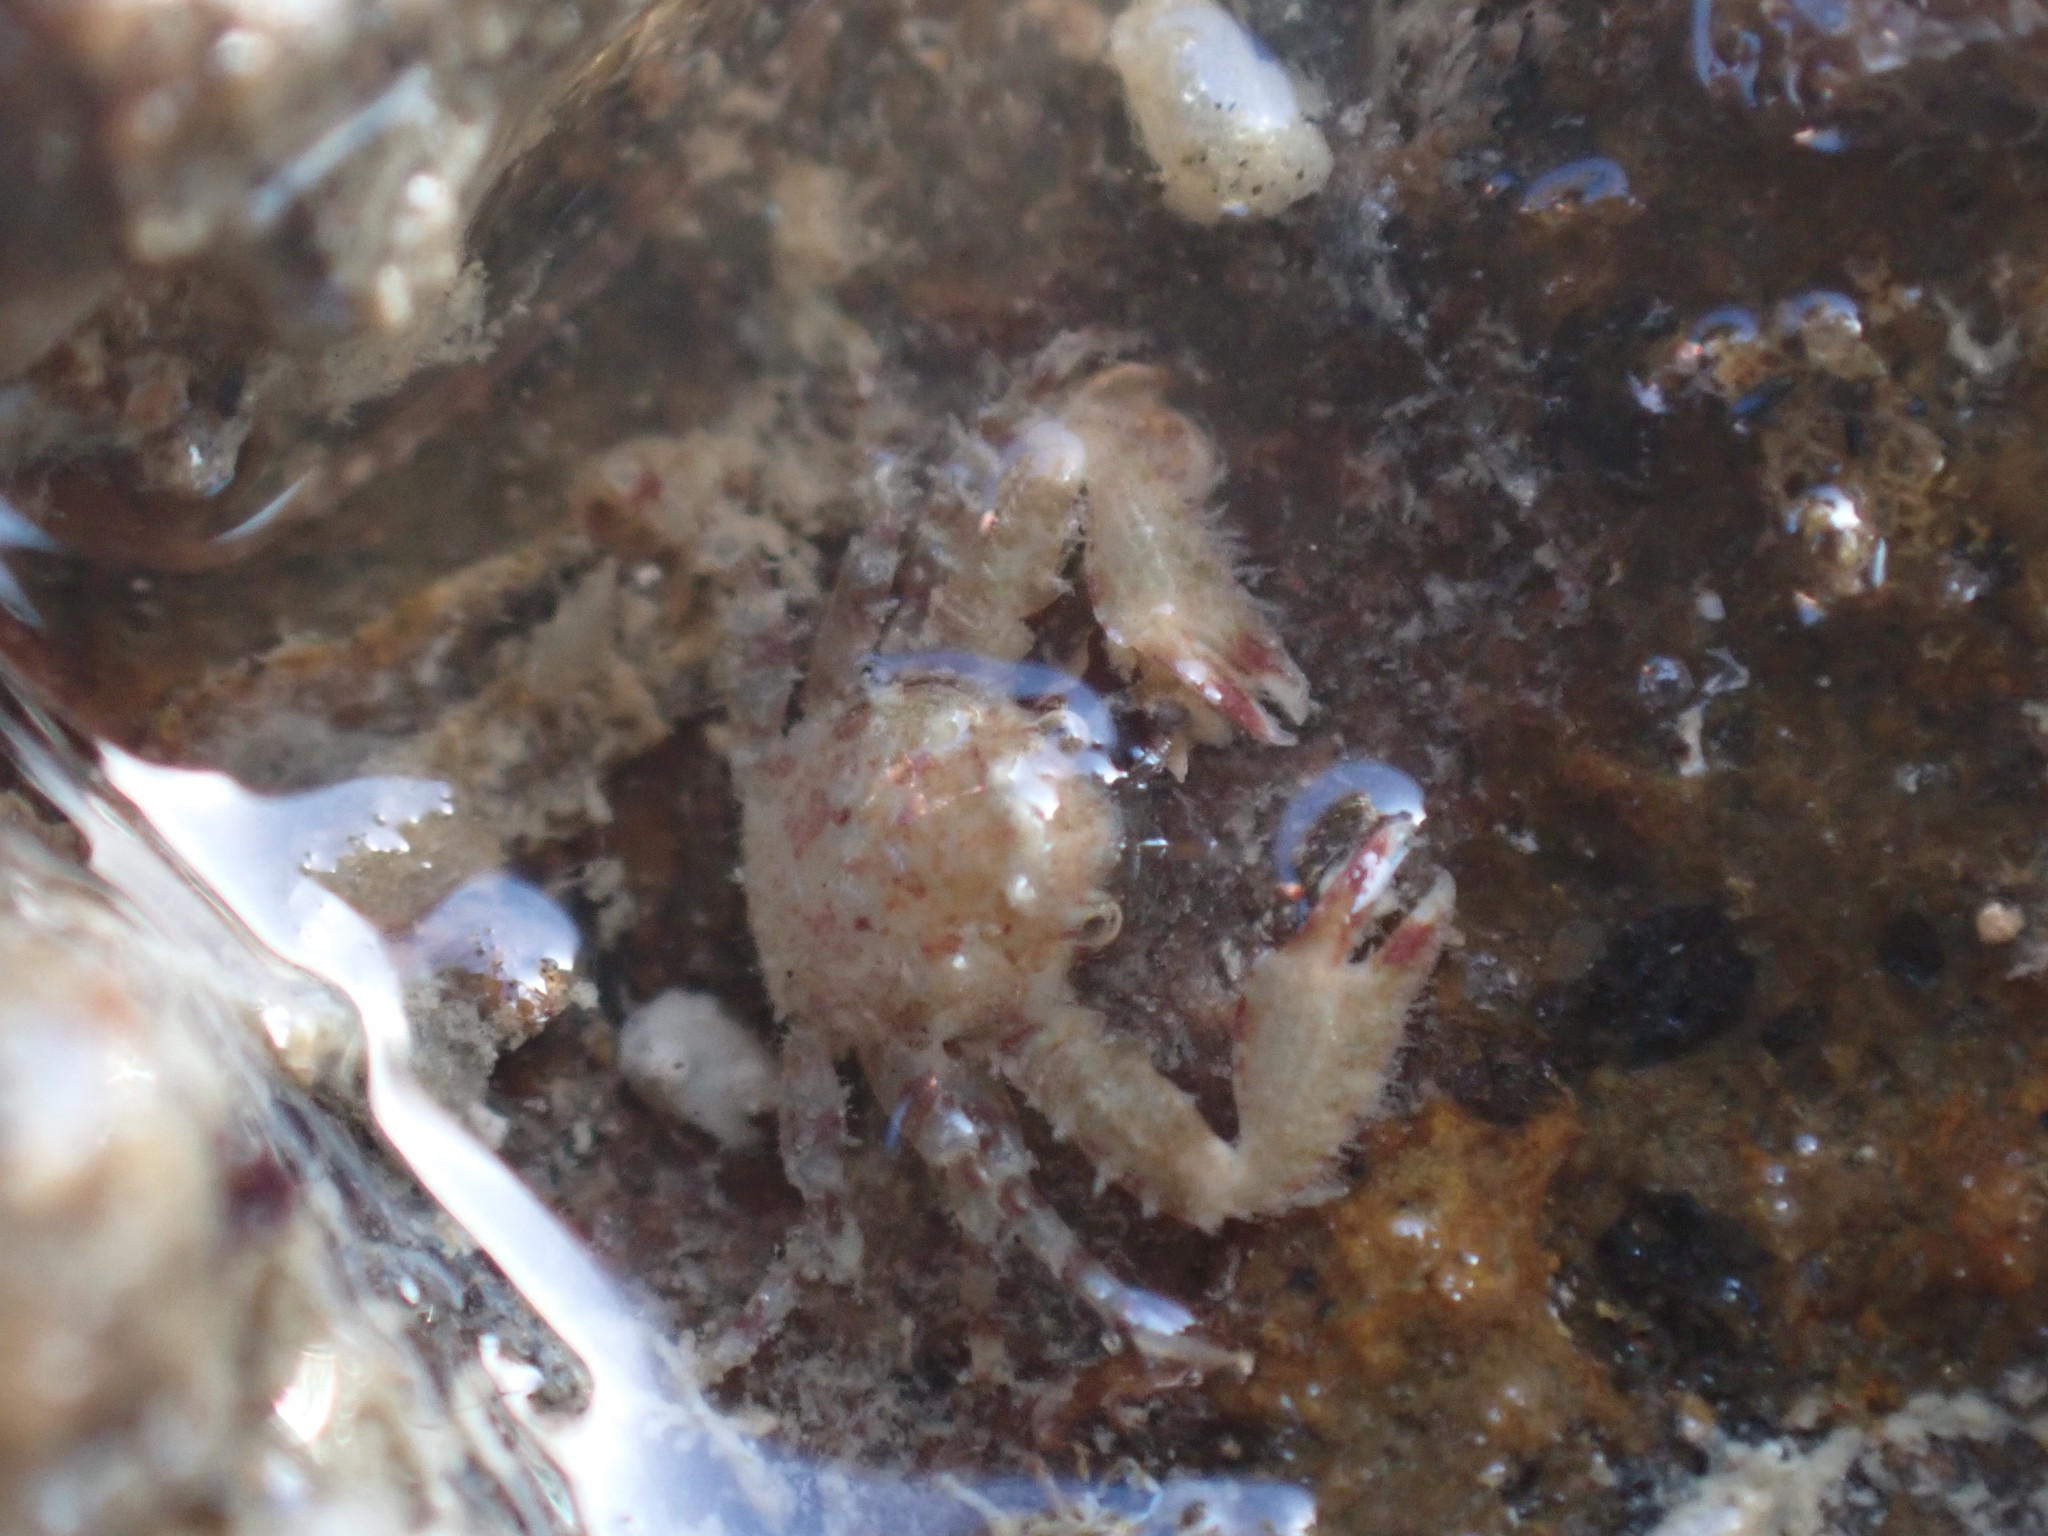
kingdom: Animalia
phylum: Arthropoda
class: Malacostraca
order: Decapoda
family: Porcellanidae
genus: Petrocheles
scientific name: Petrocheles spinosus
